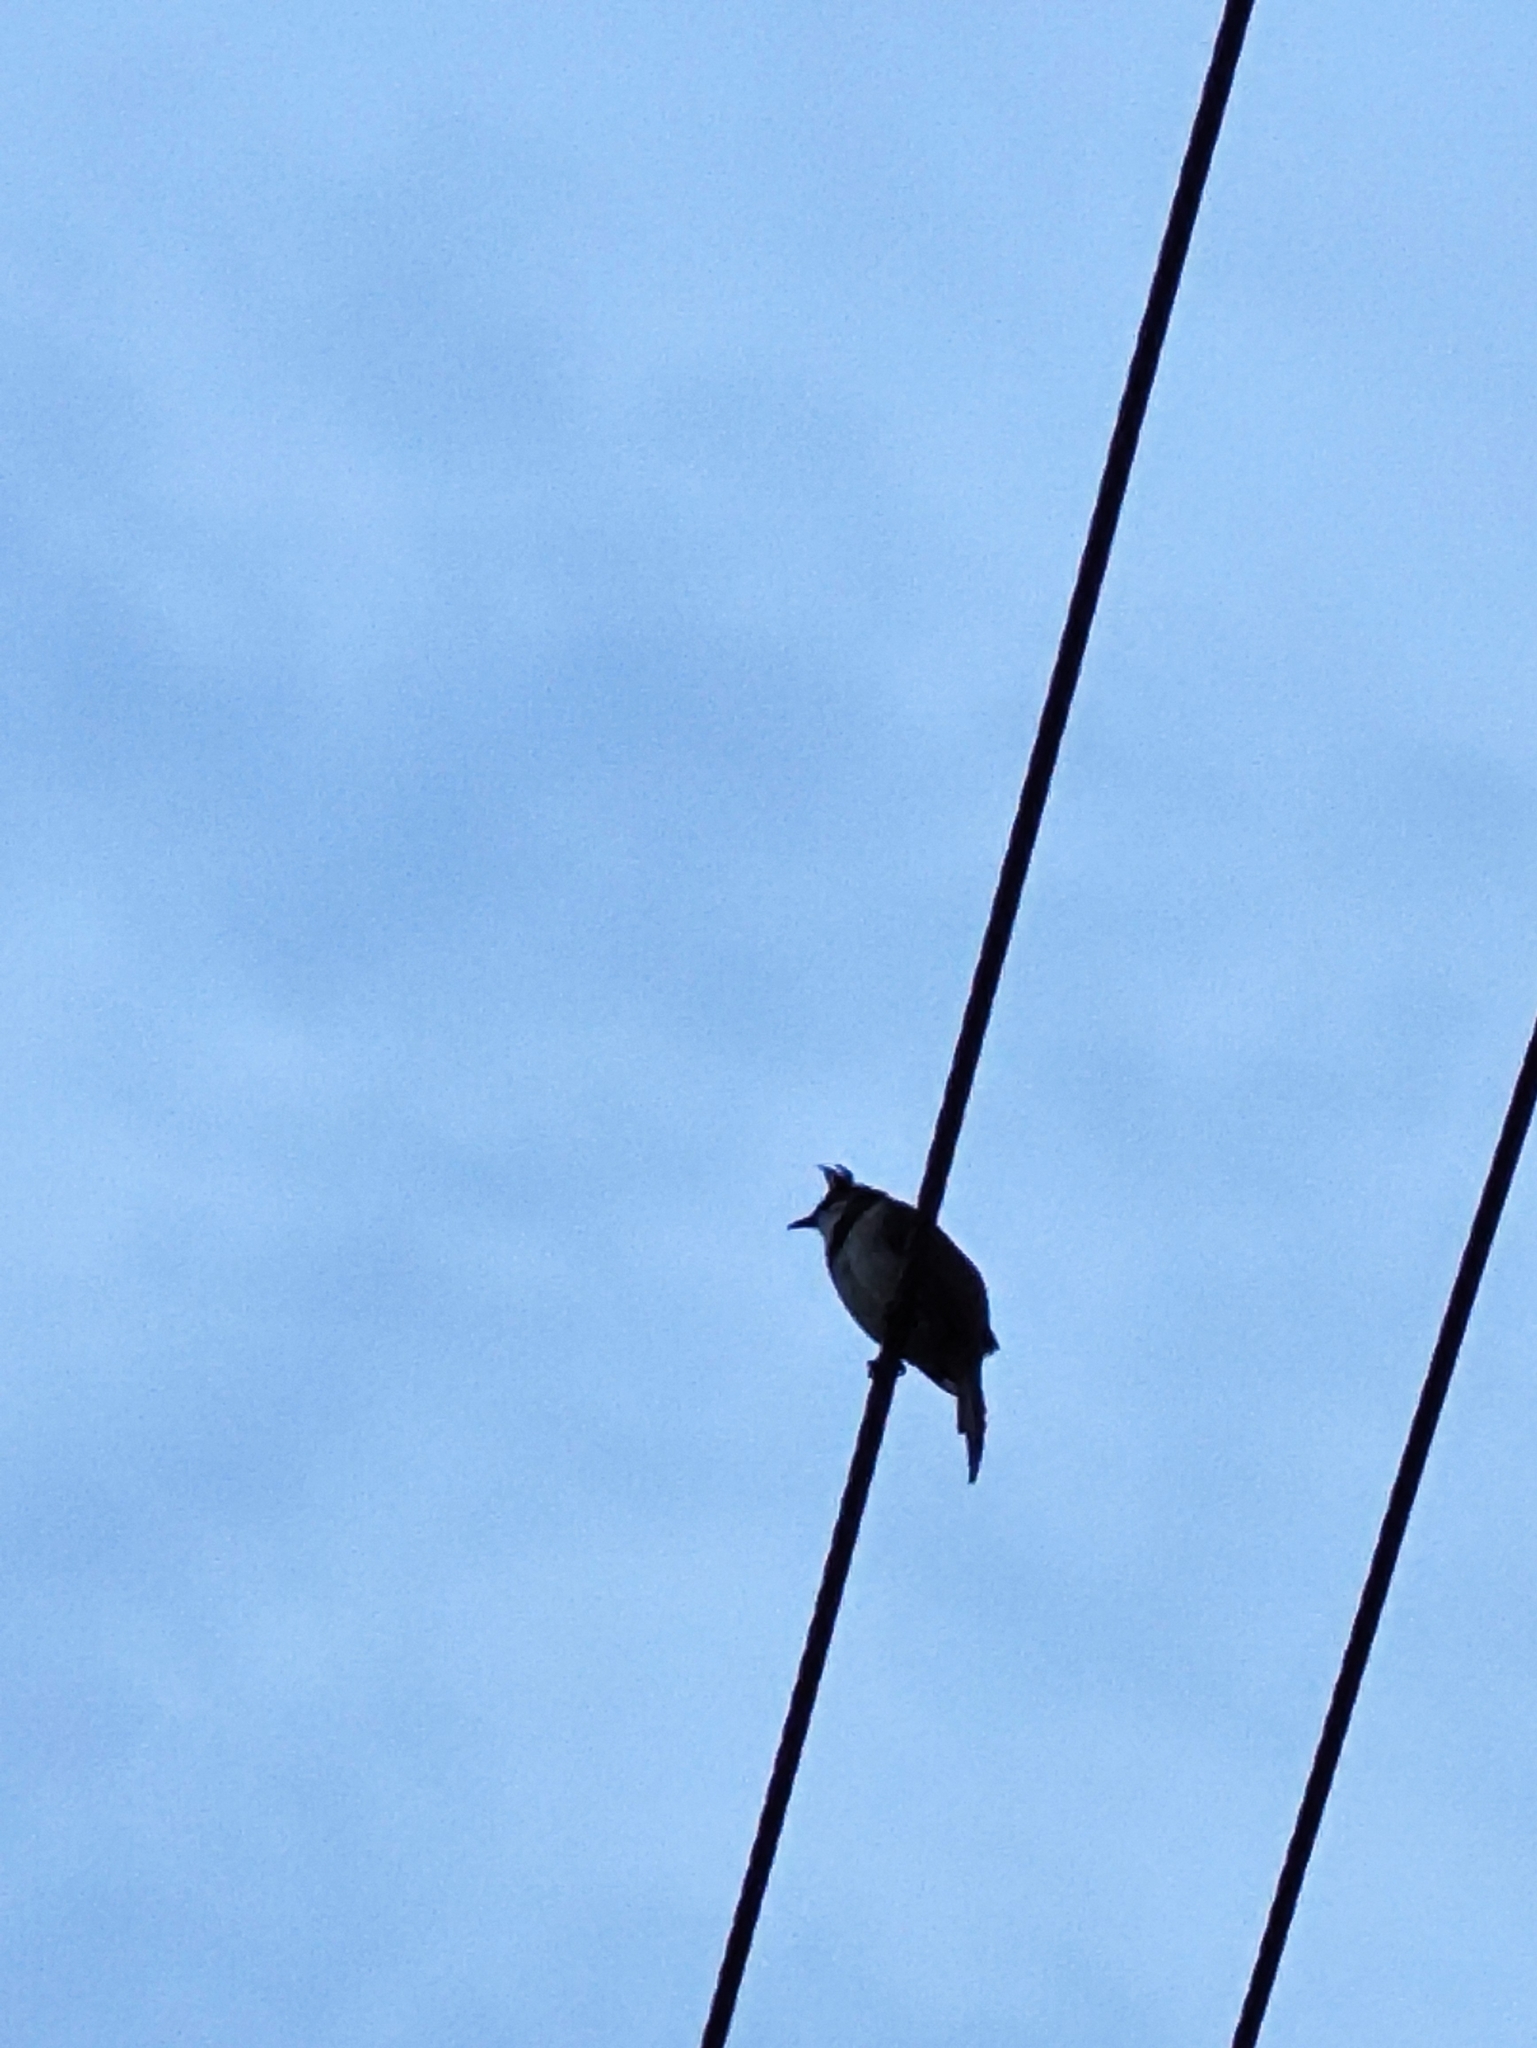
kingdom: Animalia
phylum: Chordata
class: Aves
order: Passeriformes
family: Pycnonotidae
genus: Pycnonotus
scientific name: Pycnonotus jocosus
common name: Red-whiskered bulbul
